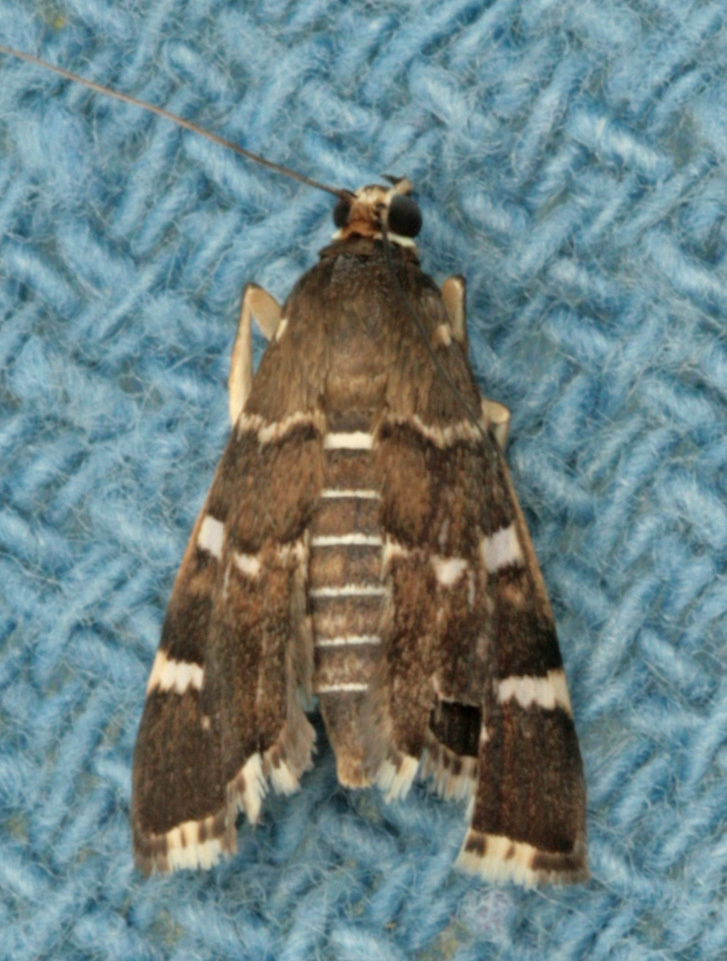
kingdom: Animalia
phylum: Arthropoda
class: Insecta
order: Lepidoptera
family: Crambidae
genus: Hymenia
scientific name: Hymenia perspectalis
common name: Spotted beet webworm
